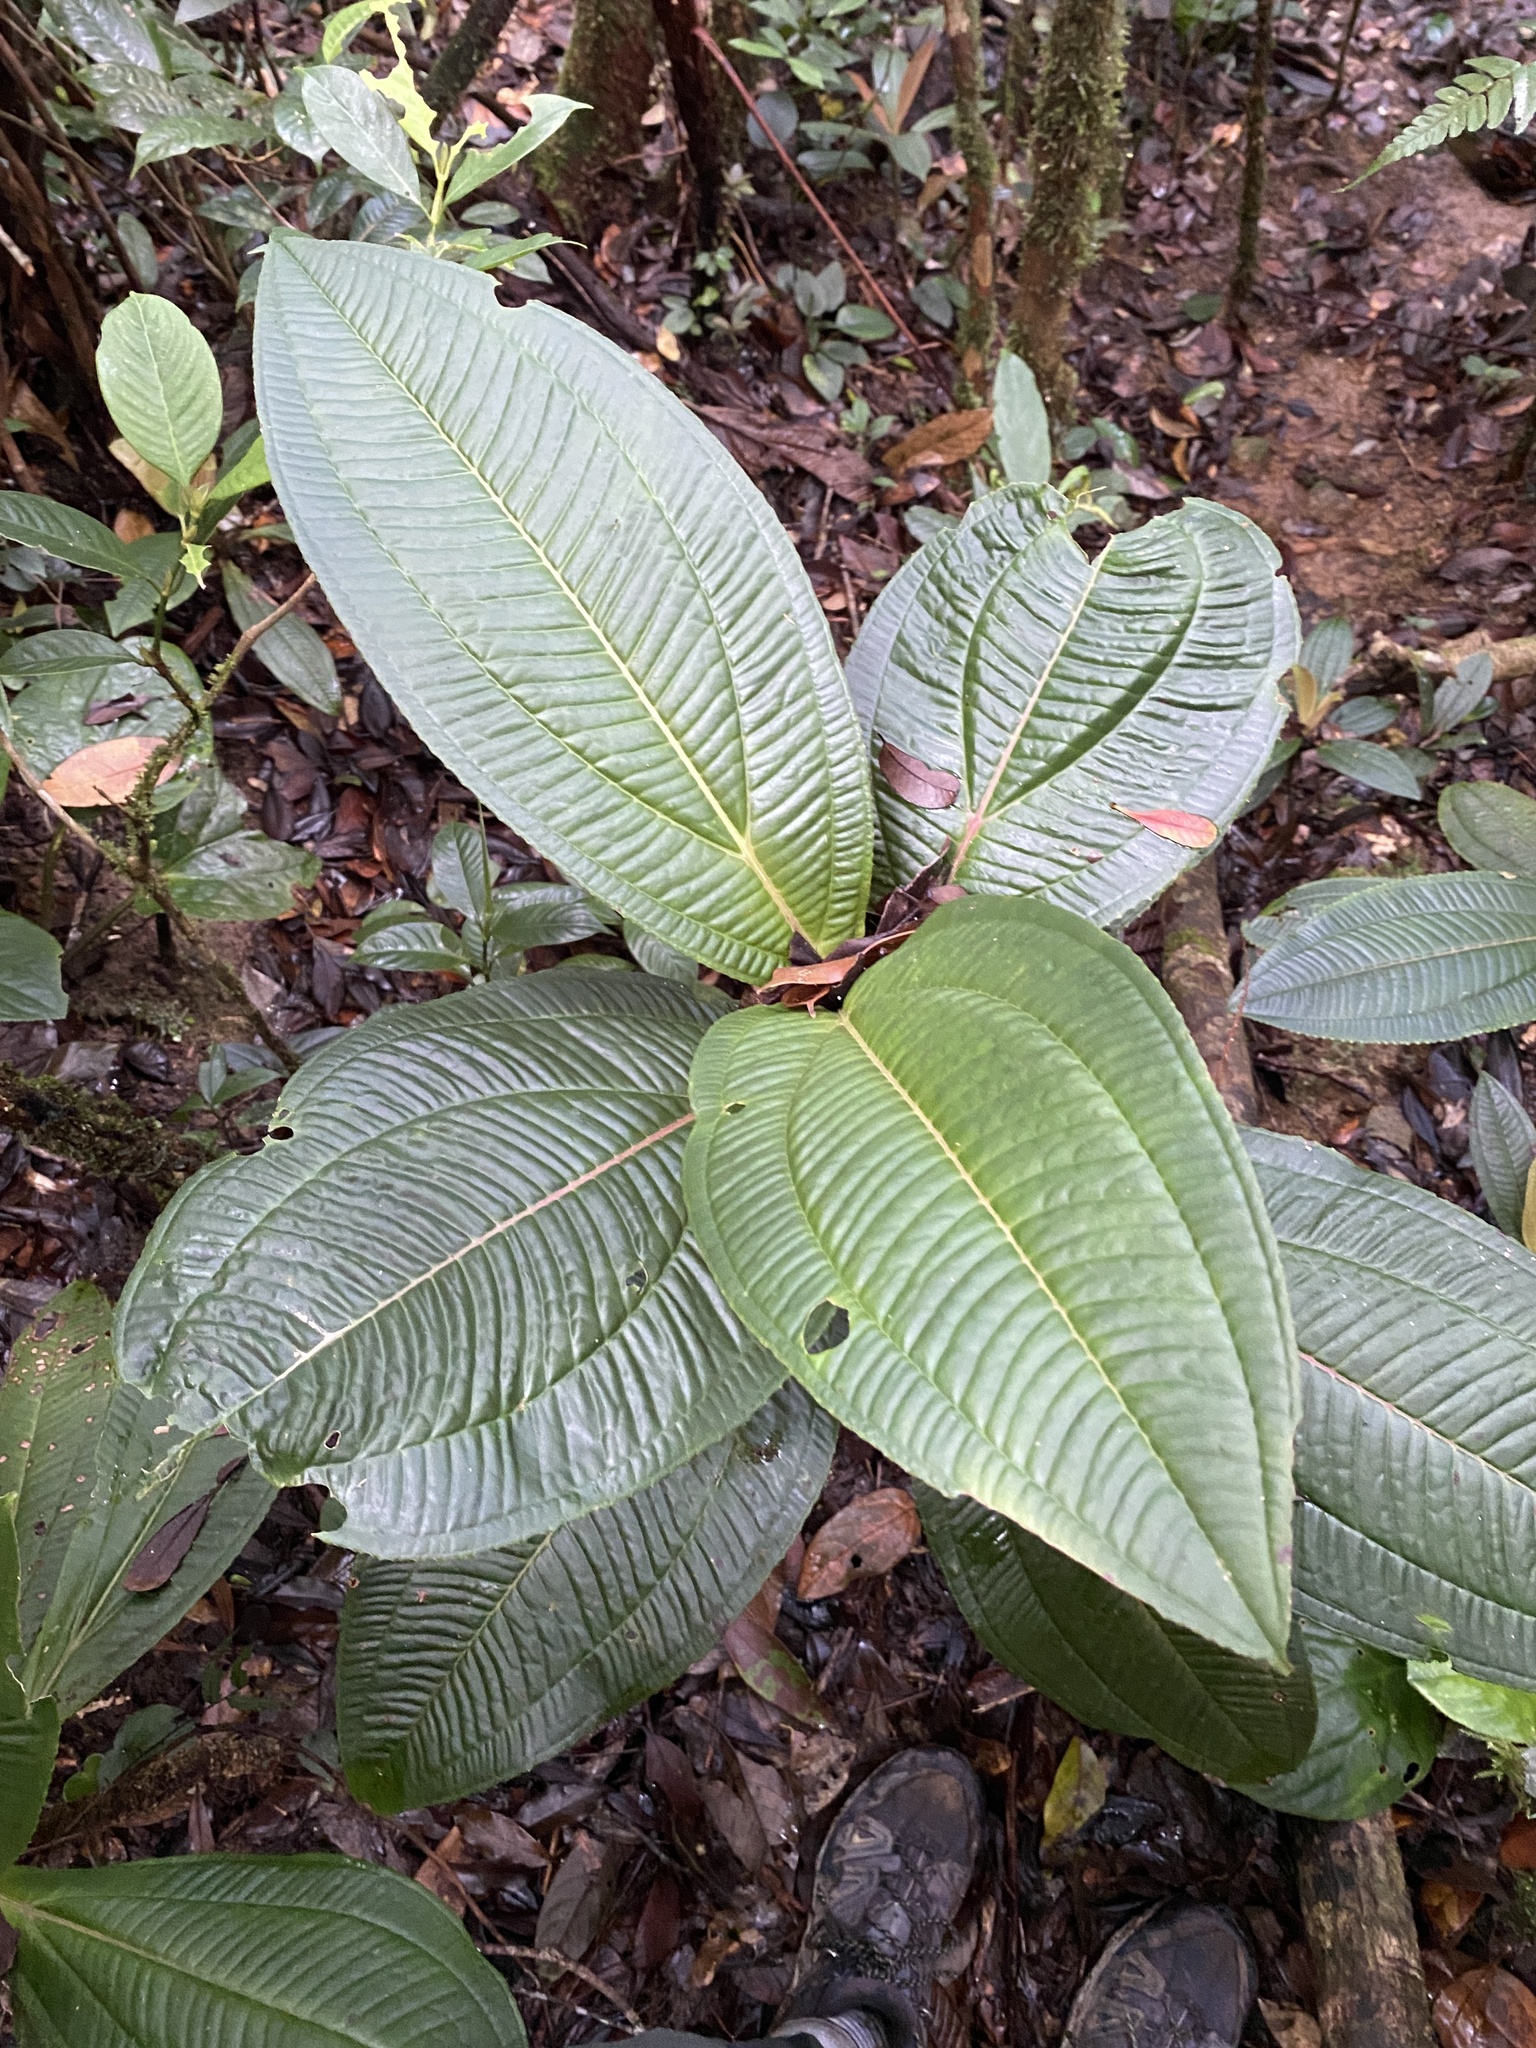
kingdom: Plantae
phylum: Tracheophyta
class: Magnoliopsida
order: Myrtales
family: Melastomataceae
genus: Allomorphia
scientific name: Allomorphia curtisii
